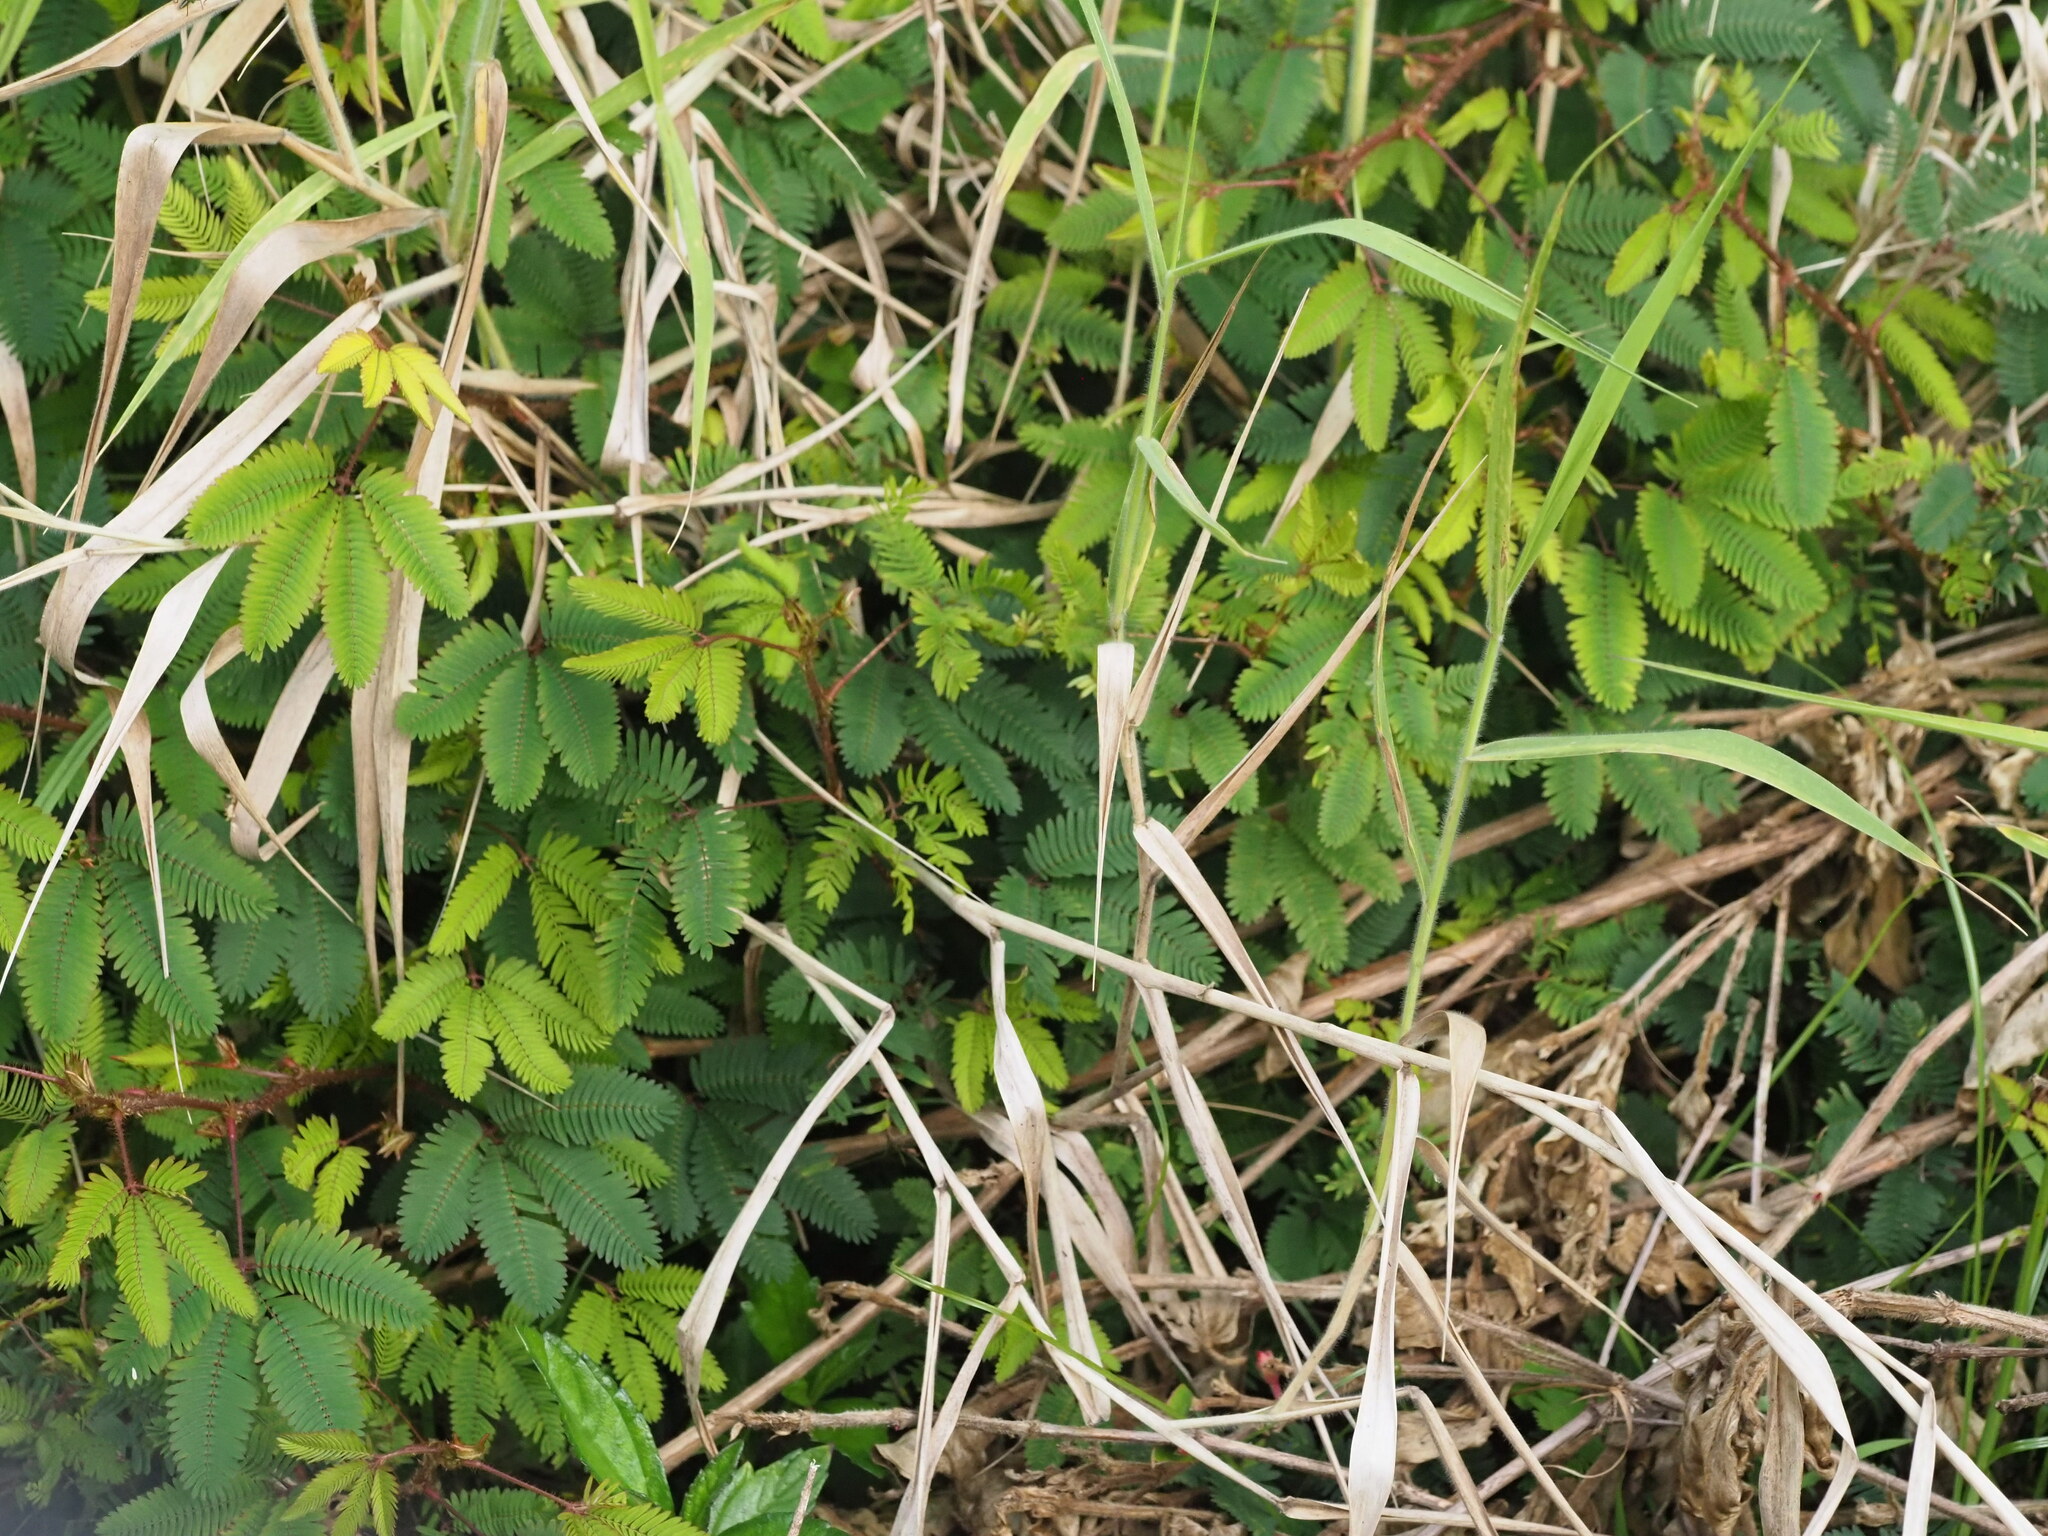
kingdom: Plantae
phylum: Tracheophyta
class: Magnoliopsida
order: Fabales
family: Fabaceae
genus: Mimosa
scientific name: Mimosa pudica
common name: Sensitive plant
